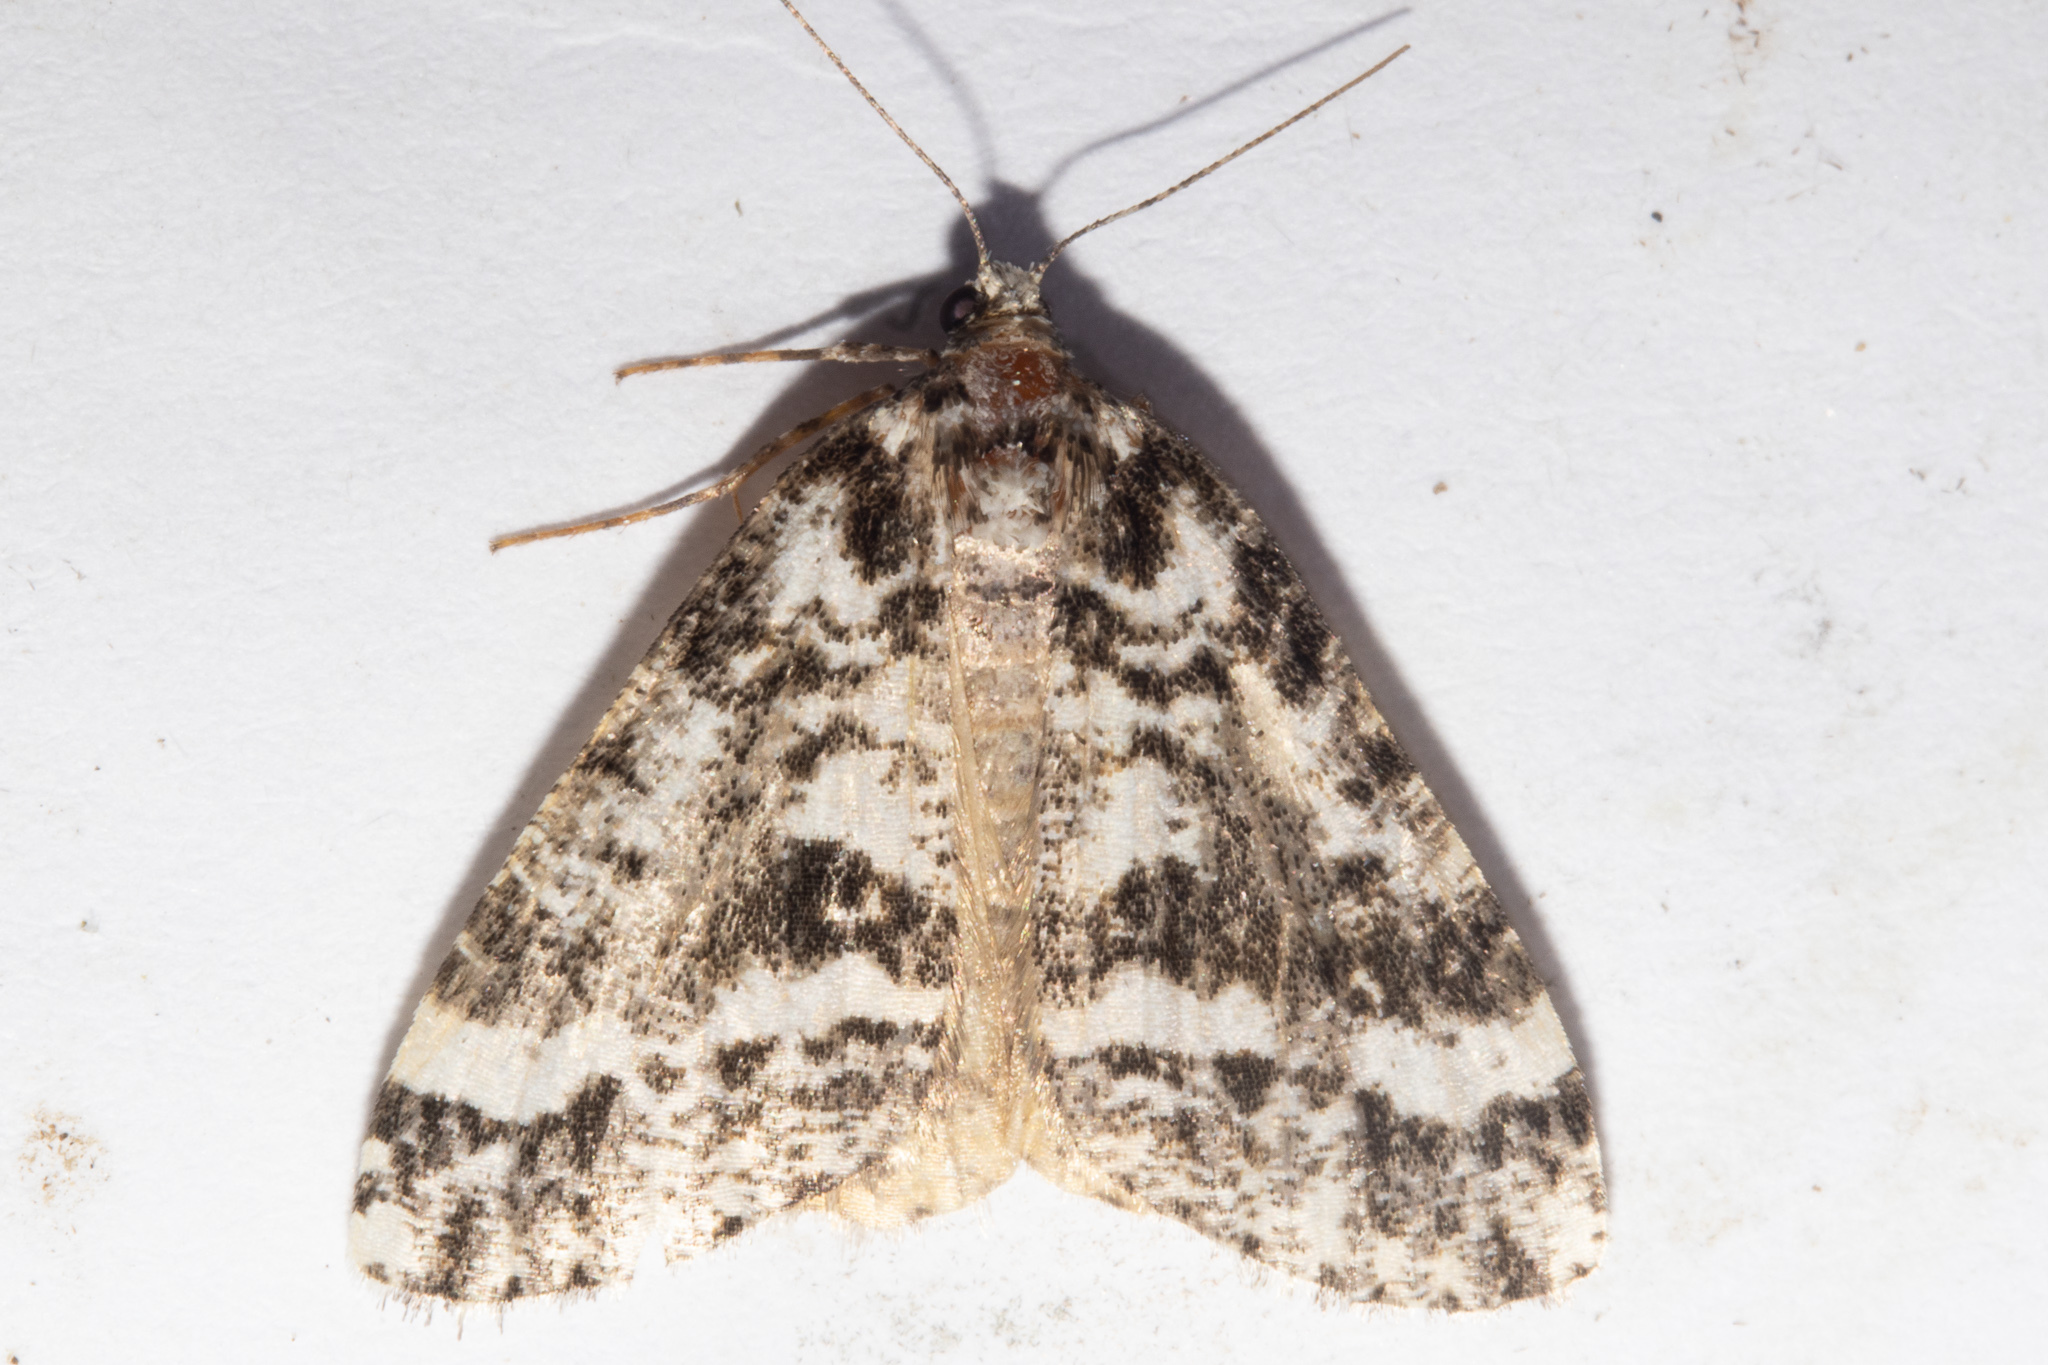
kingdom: Animalia
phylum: Arthropoda
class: Insecta
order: Lepidoptera
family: Geometridae
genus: Pseudocoremia
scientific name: Pseudocoremia leucelaea
